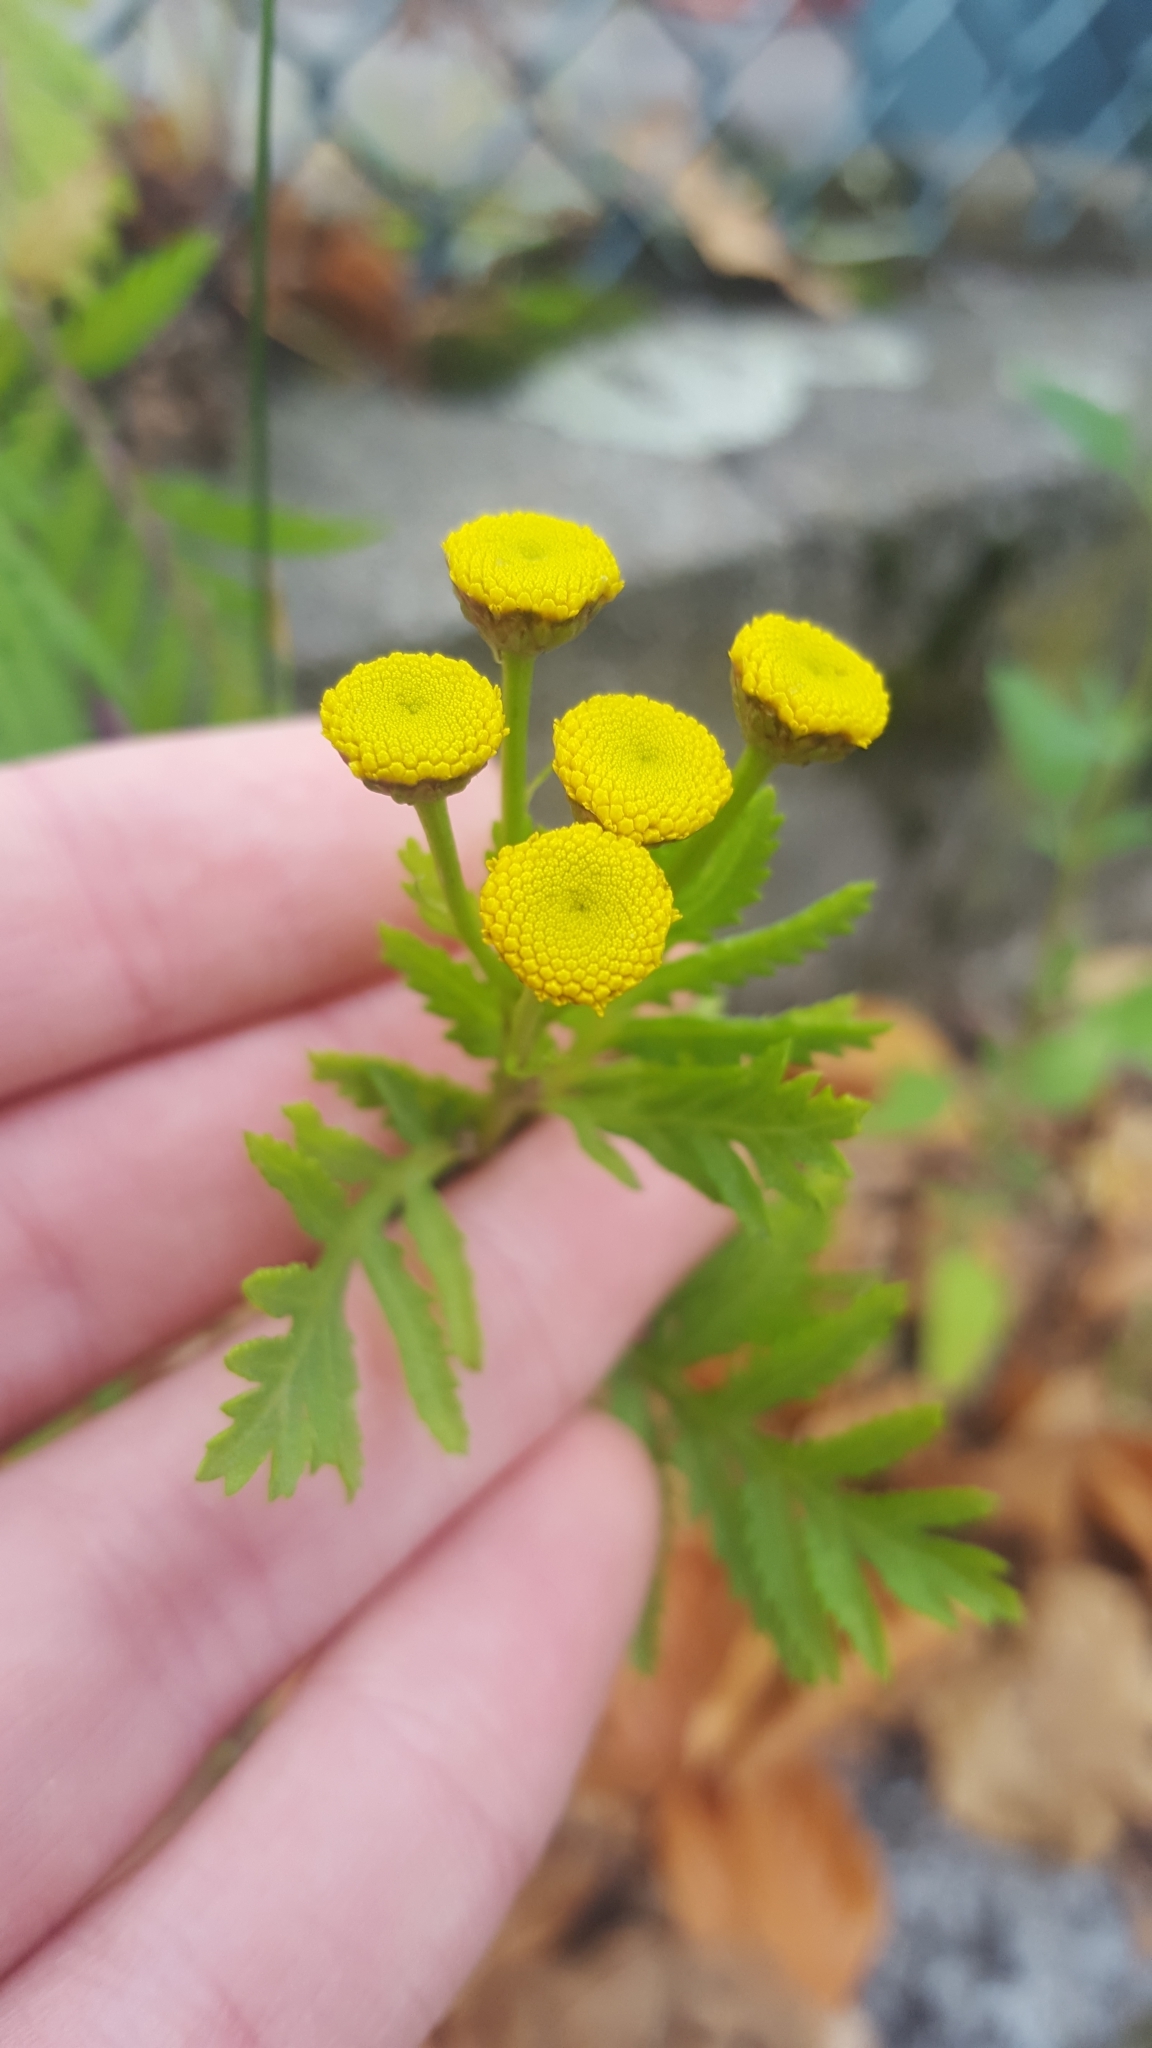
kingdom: Plantae
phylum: Tracheophyta
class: Magnoliopsida
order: Asterales
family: Asteraceae
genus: Tanacetum
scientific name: Tanacetum vulgare
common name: Common tansy
